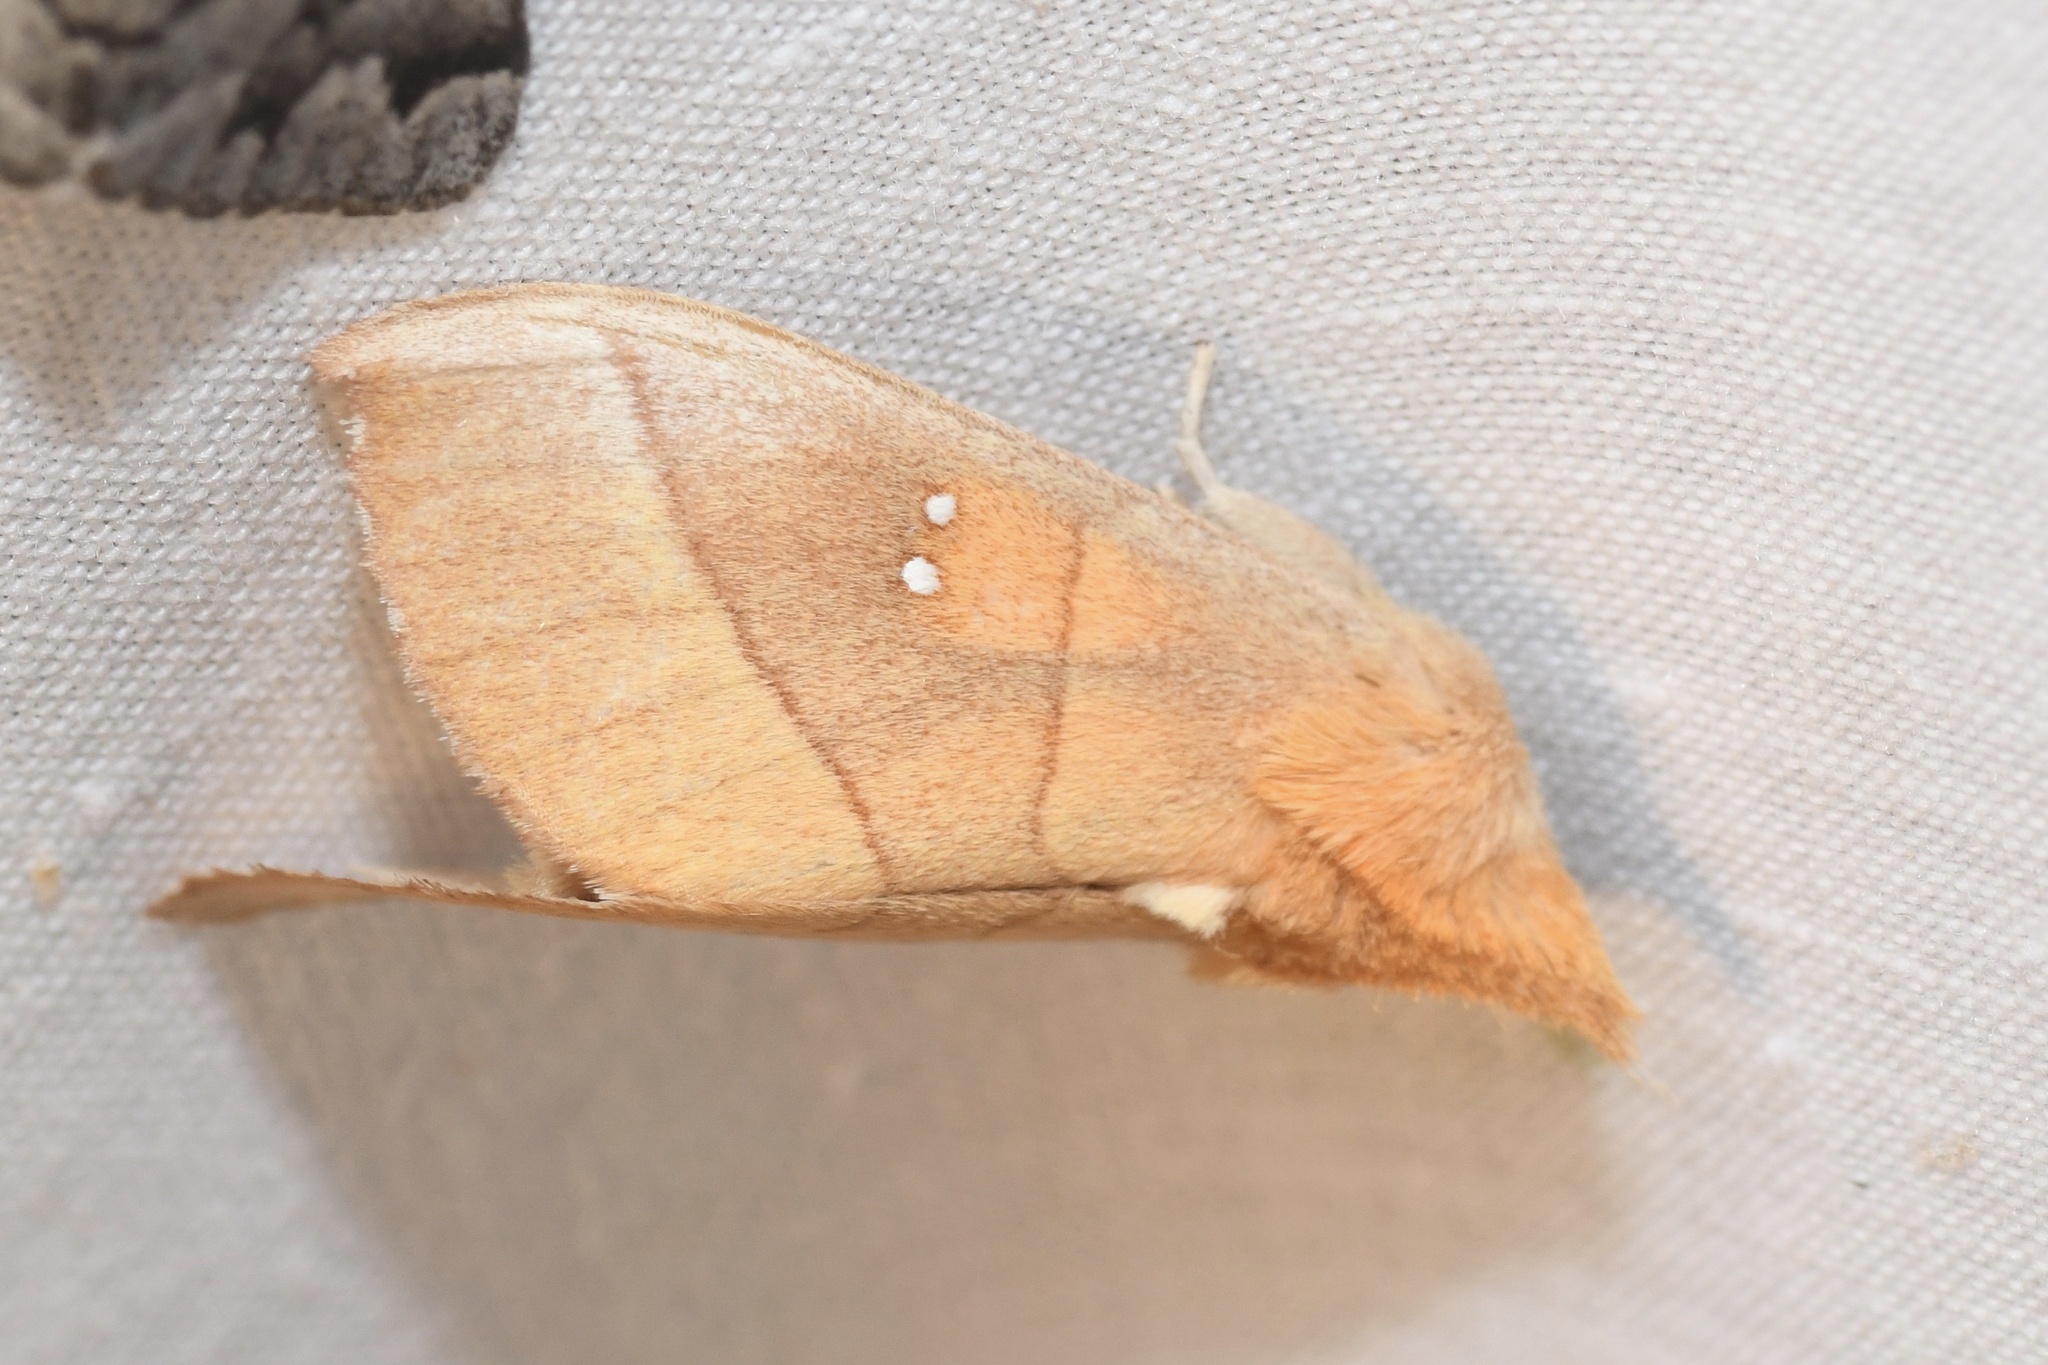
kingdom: Animalia
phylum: Arthropoda
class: Insecta
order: Lepidoptera
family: Notodontidae
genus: Nadata
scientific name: Nadata gibbosa
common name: White-dotted prominent
